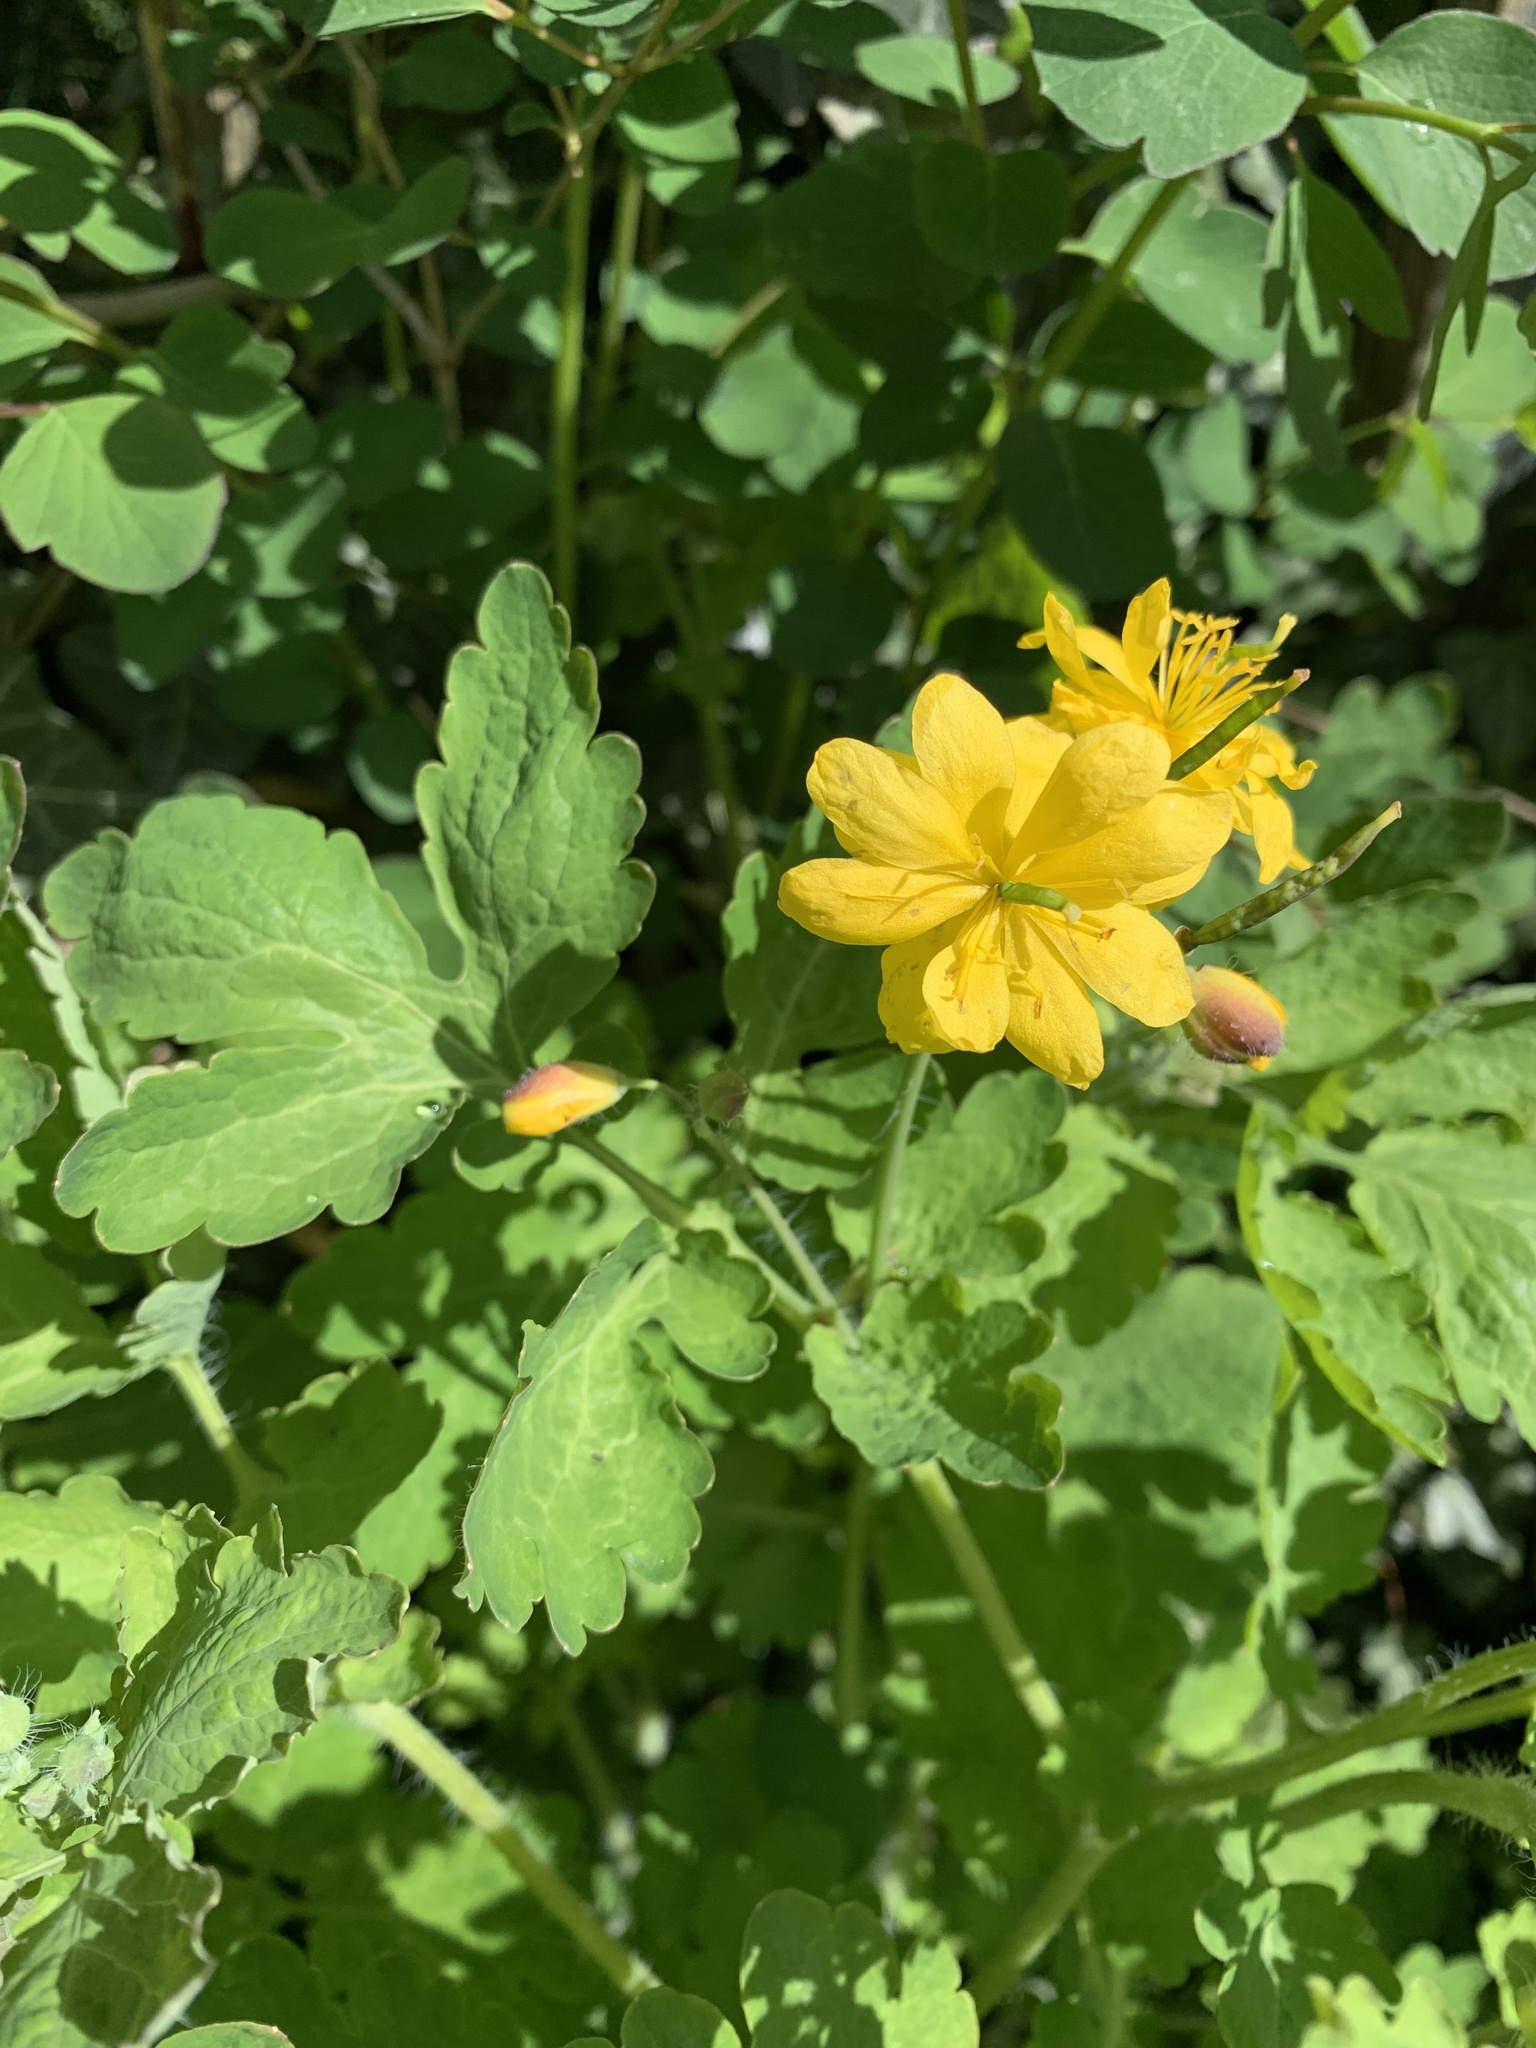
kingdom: Plantae
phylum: Tracheophyta
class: Magnoliopsida
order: Ranunculales
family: Papaveraceae
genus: Chelidonium
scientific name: Chelidonium majus
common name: Greater celandine
